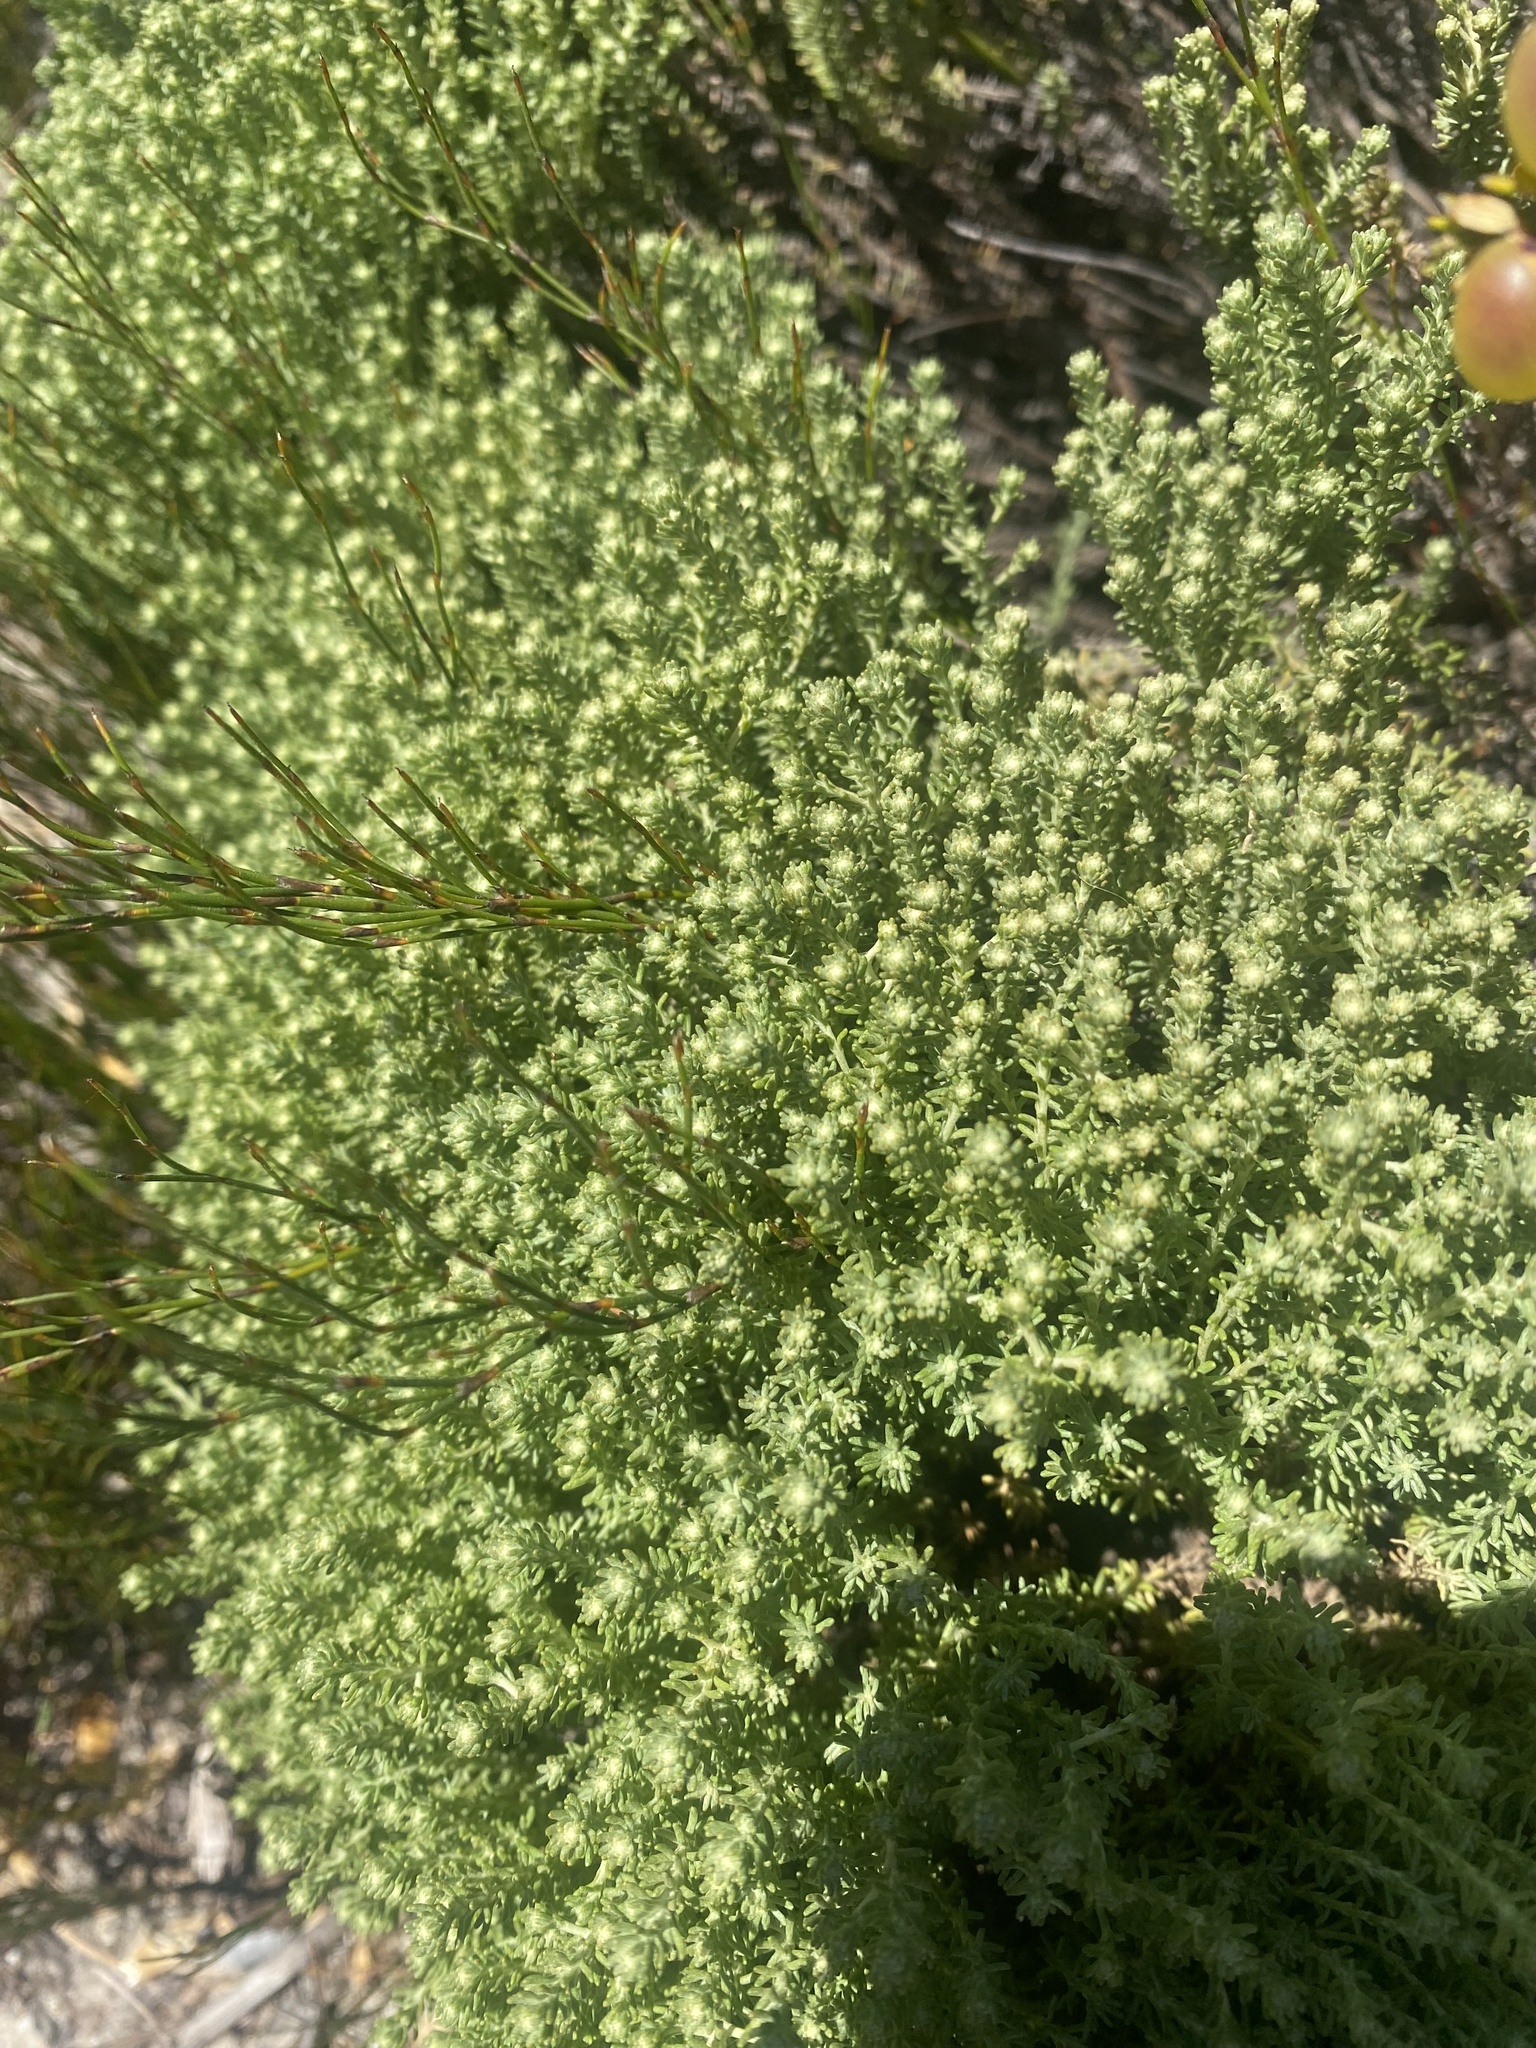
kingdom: Plantae
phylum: Tracheophyta
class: Magnoliopsida
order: Asterales
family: Asteraceae
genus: Helichrysum
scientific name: Helichrysum niveum
